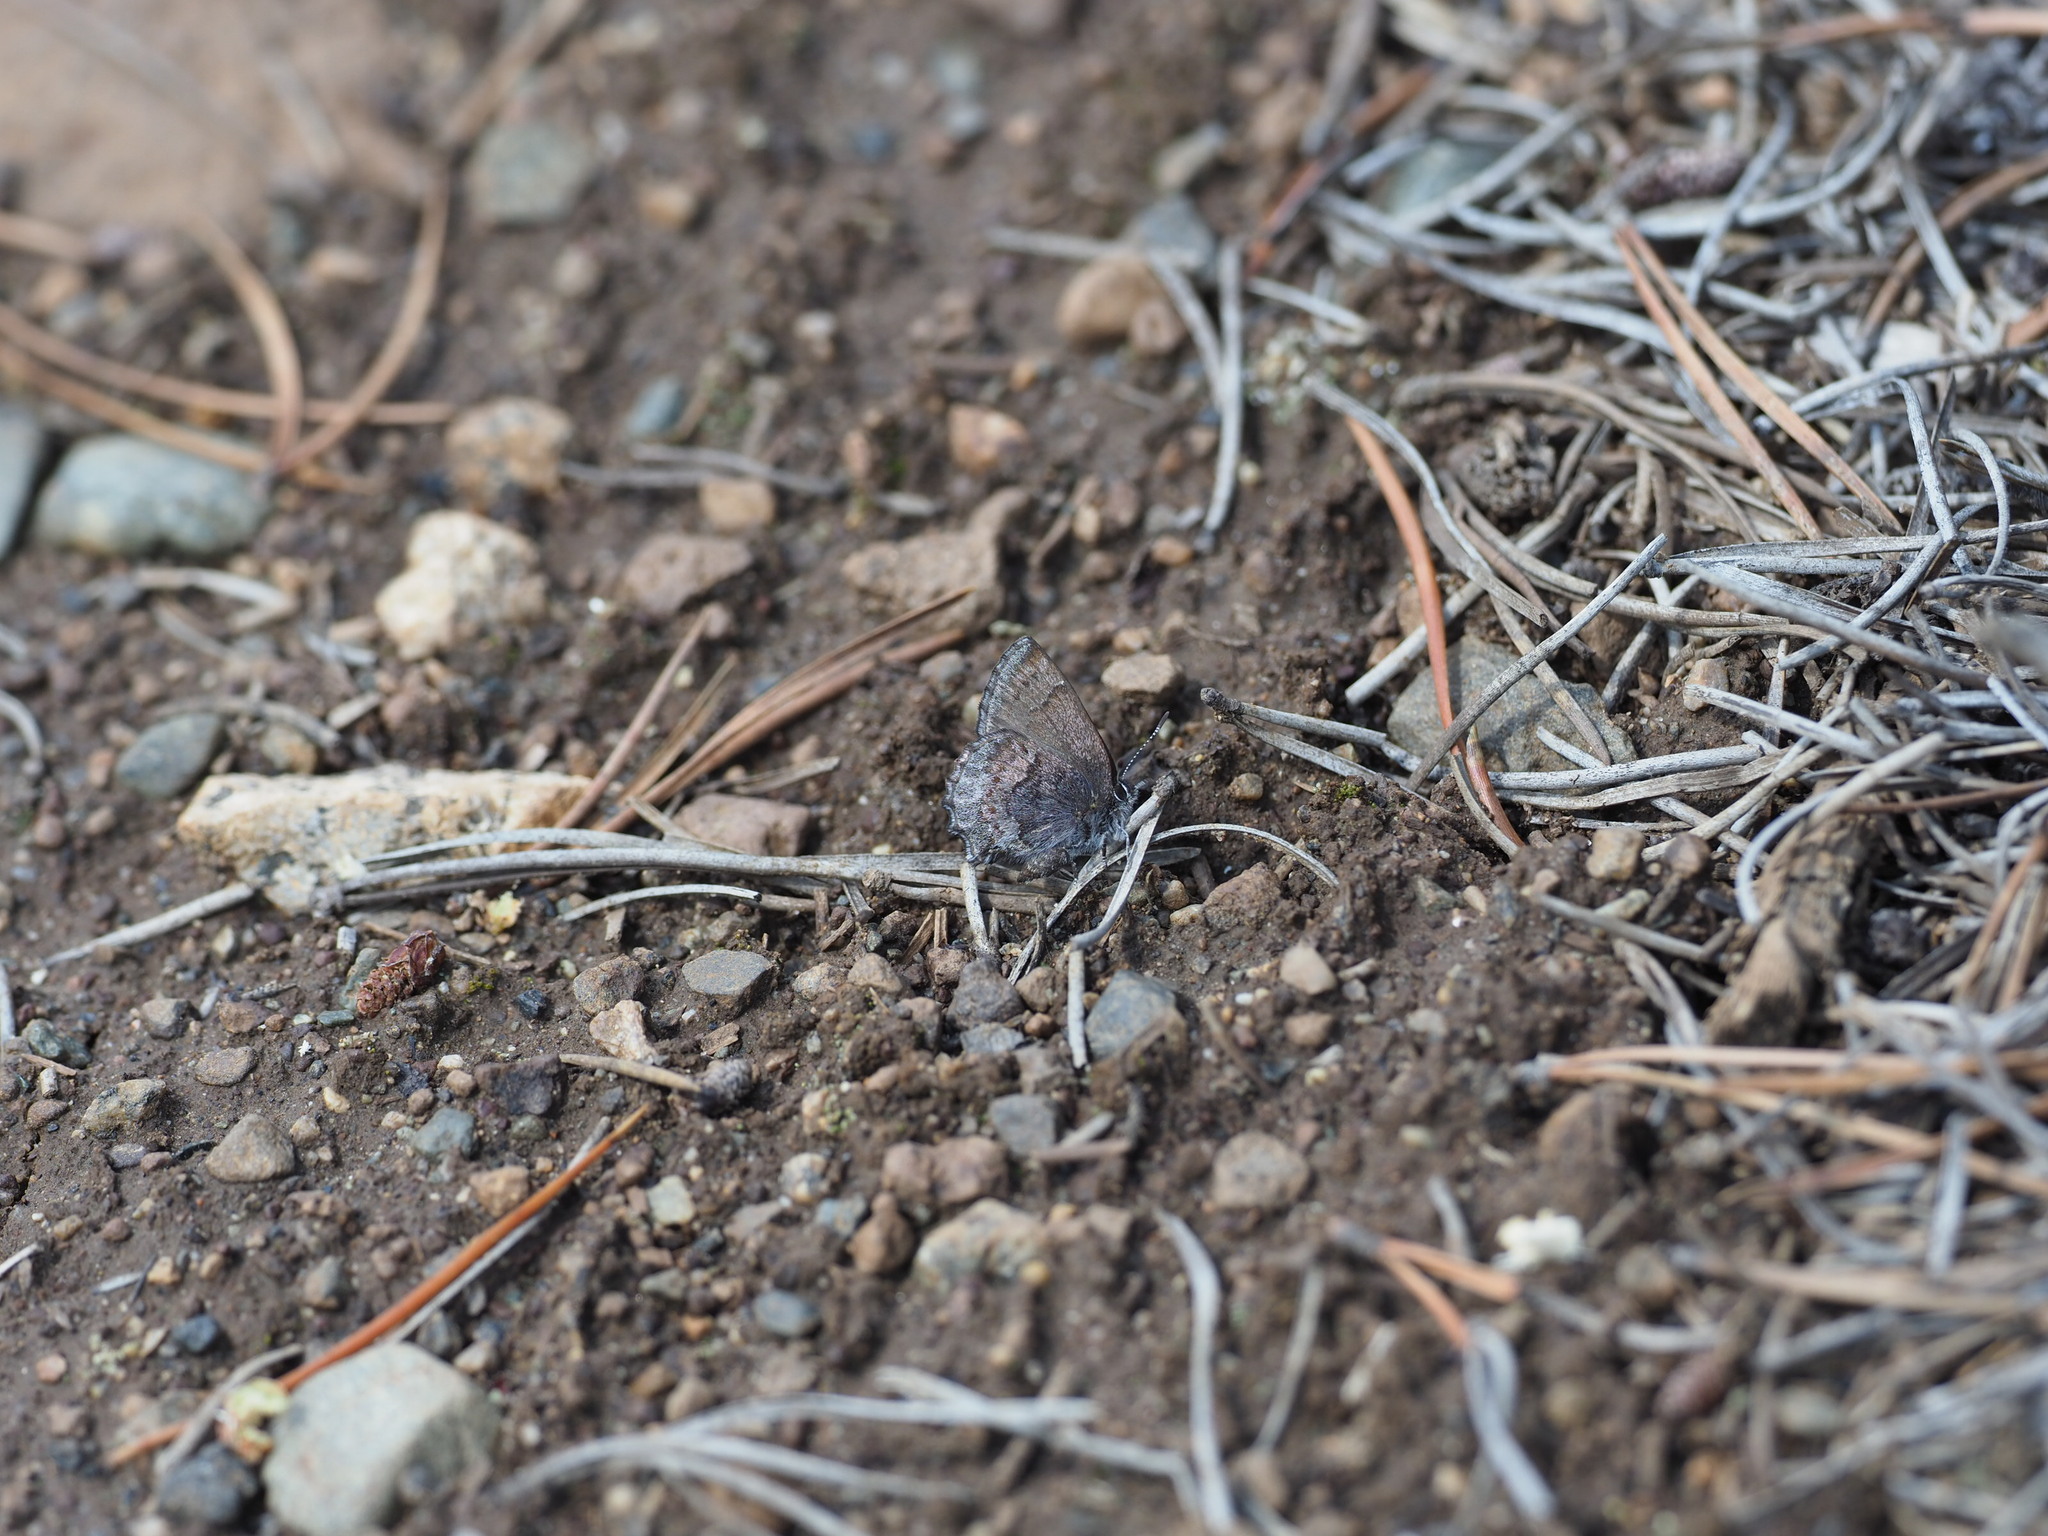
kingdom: Animalia
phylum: Arthropoda
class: Insecta
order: Lepidoptera
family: Lycaenidae
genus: Callophrys
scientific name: Callophrys polios
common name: Hoary elfin
